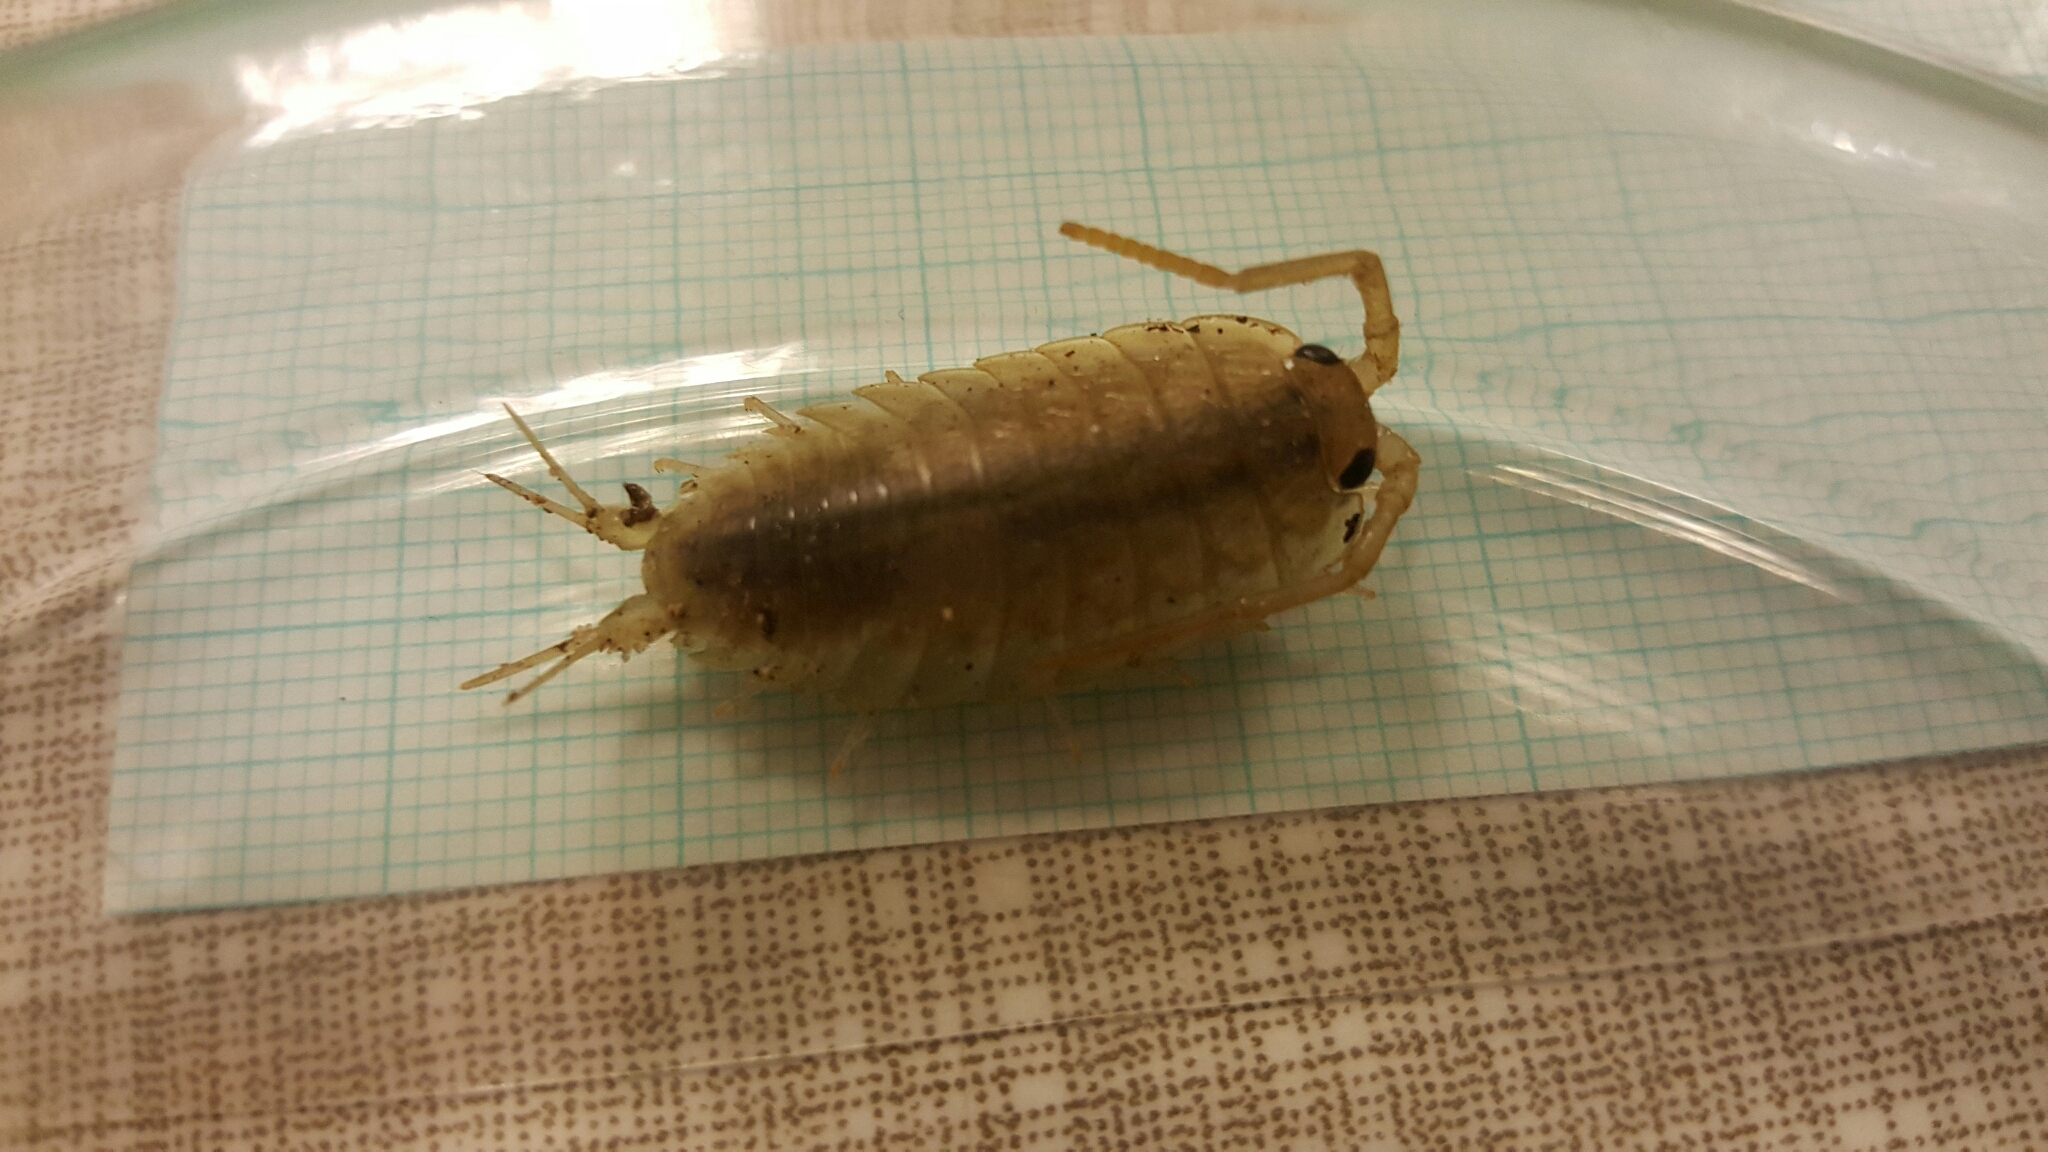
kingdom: Animalia
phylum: Arthropoda
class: Malacostraca
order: Isopoda
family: Ligiidae
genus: Ligia
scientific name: Ligia oceanica
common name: Sea slater
